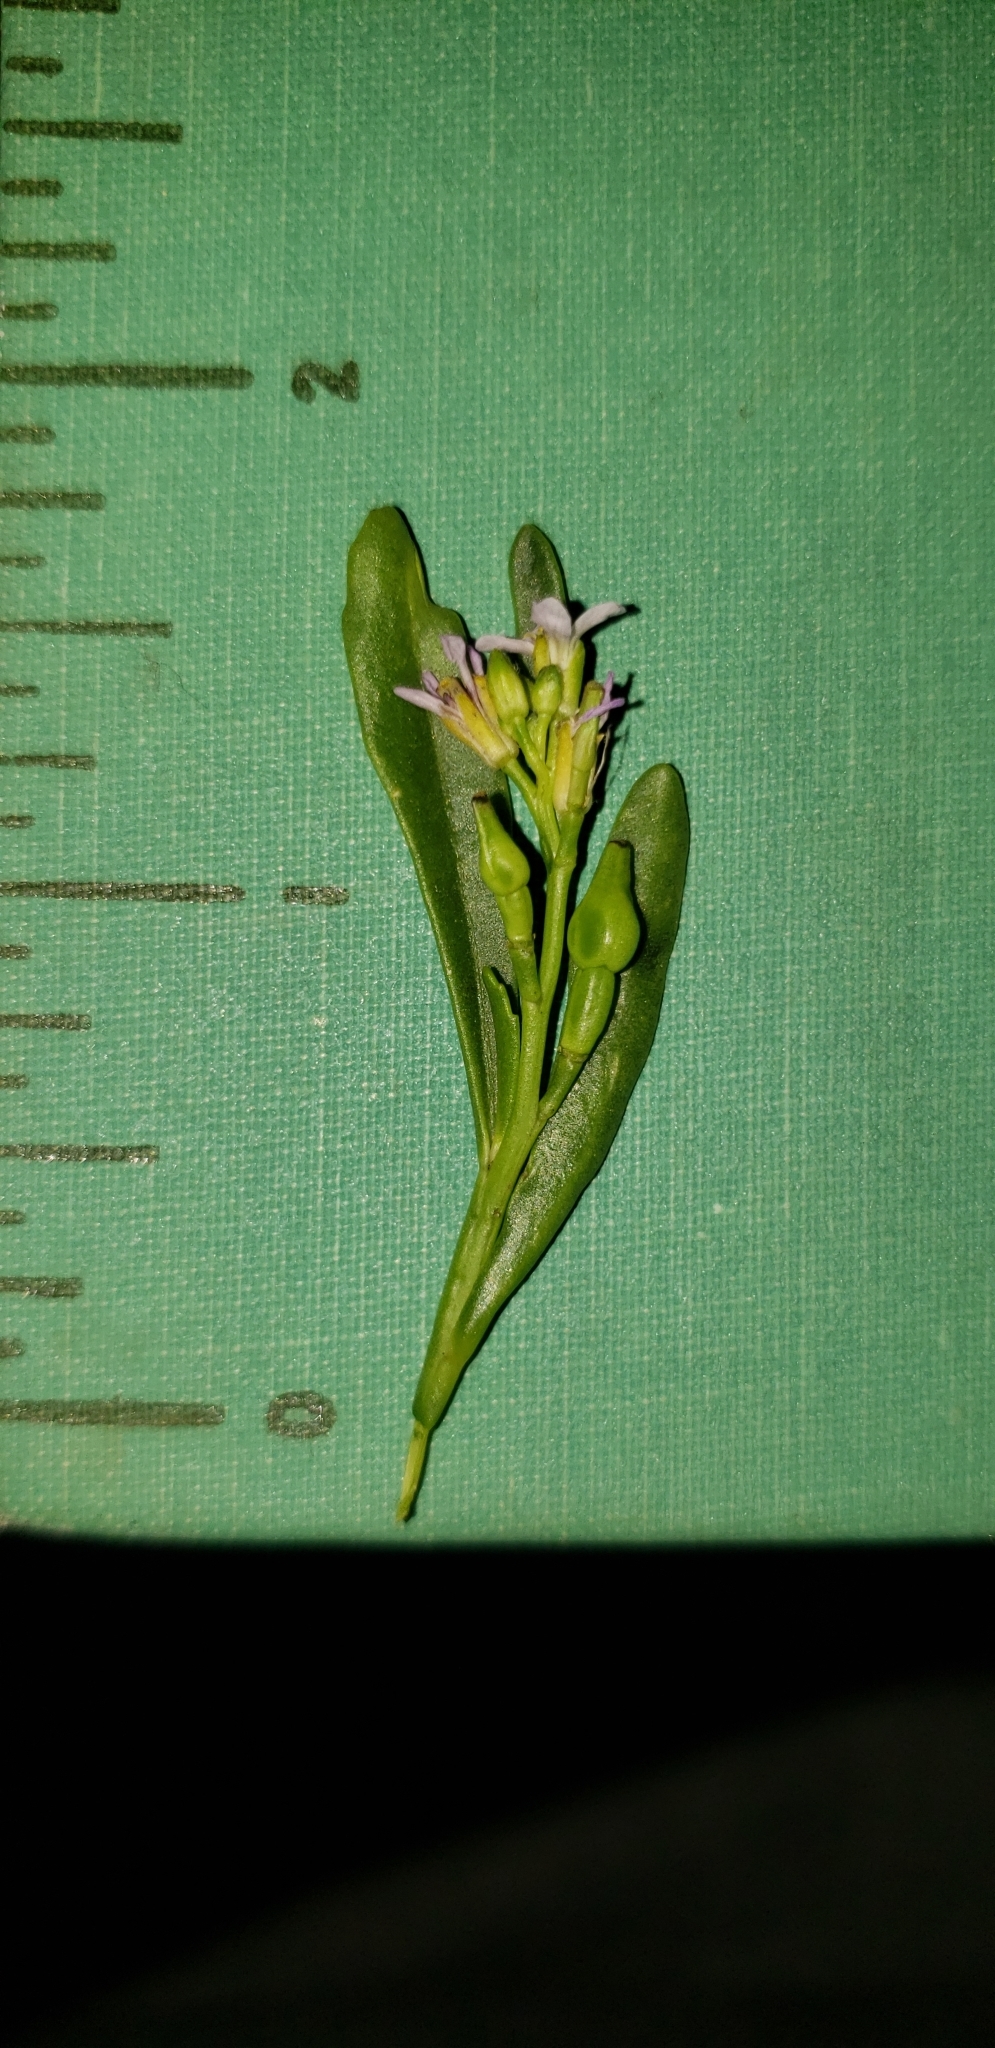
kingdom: Plantae
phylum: Tracheophyta
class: Magnoliopsida
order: Brassicales
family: Brassicaceae
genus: Cakile
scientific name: Cakile edentula
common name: American sea rocket
